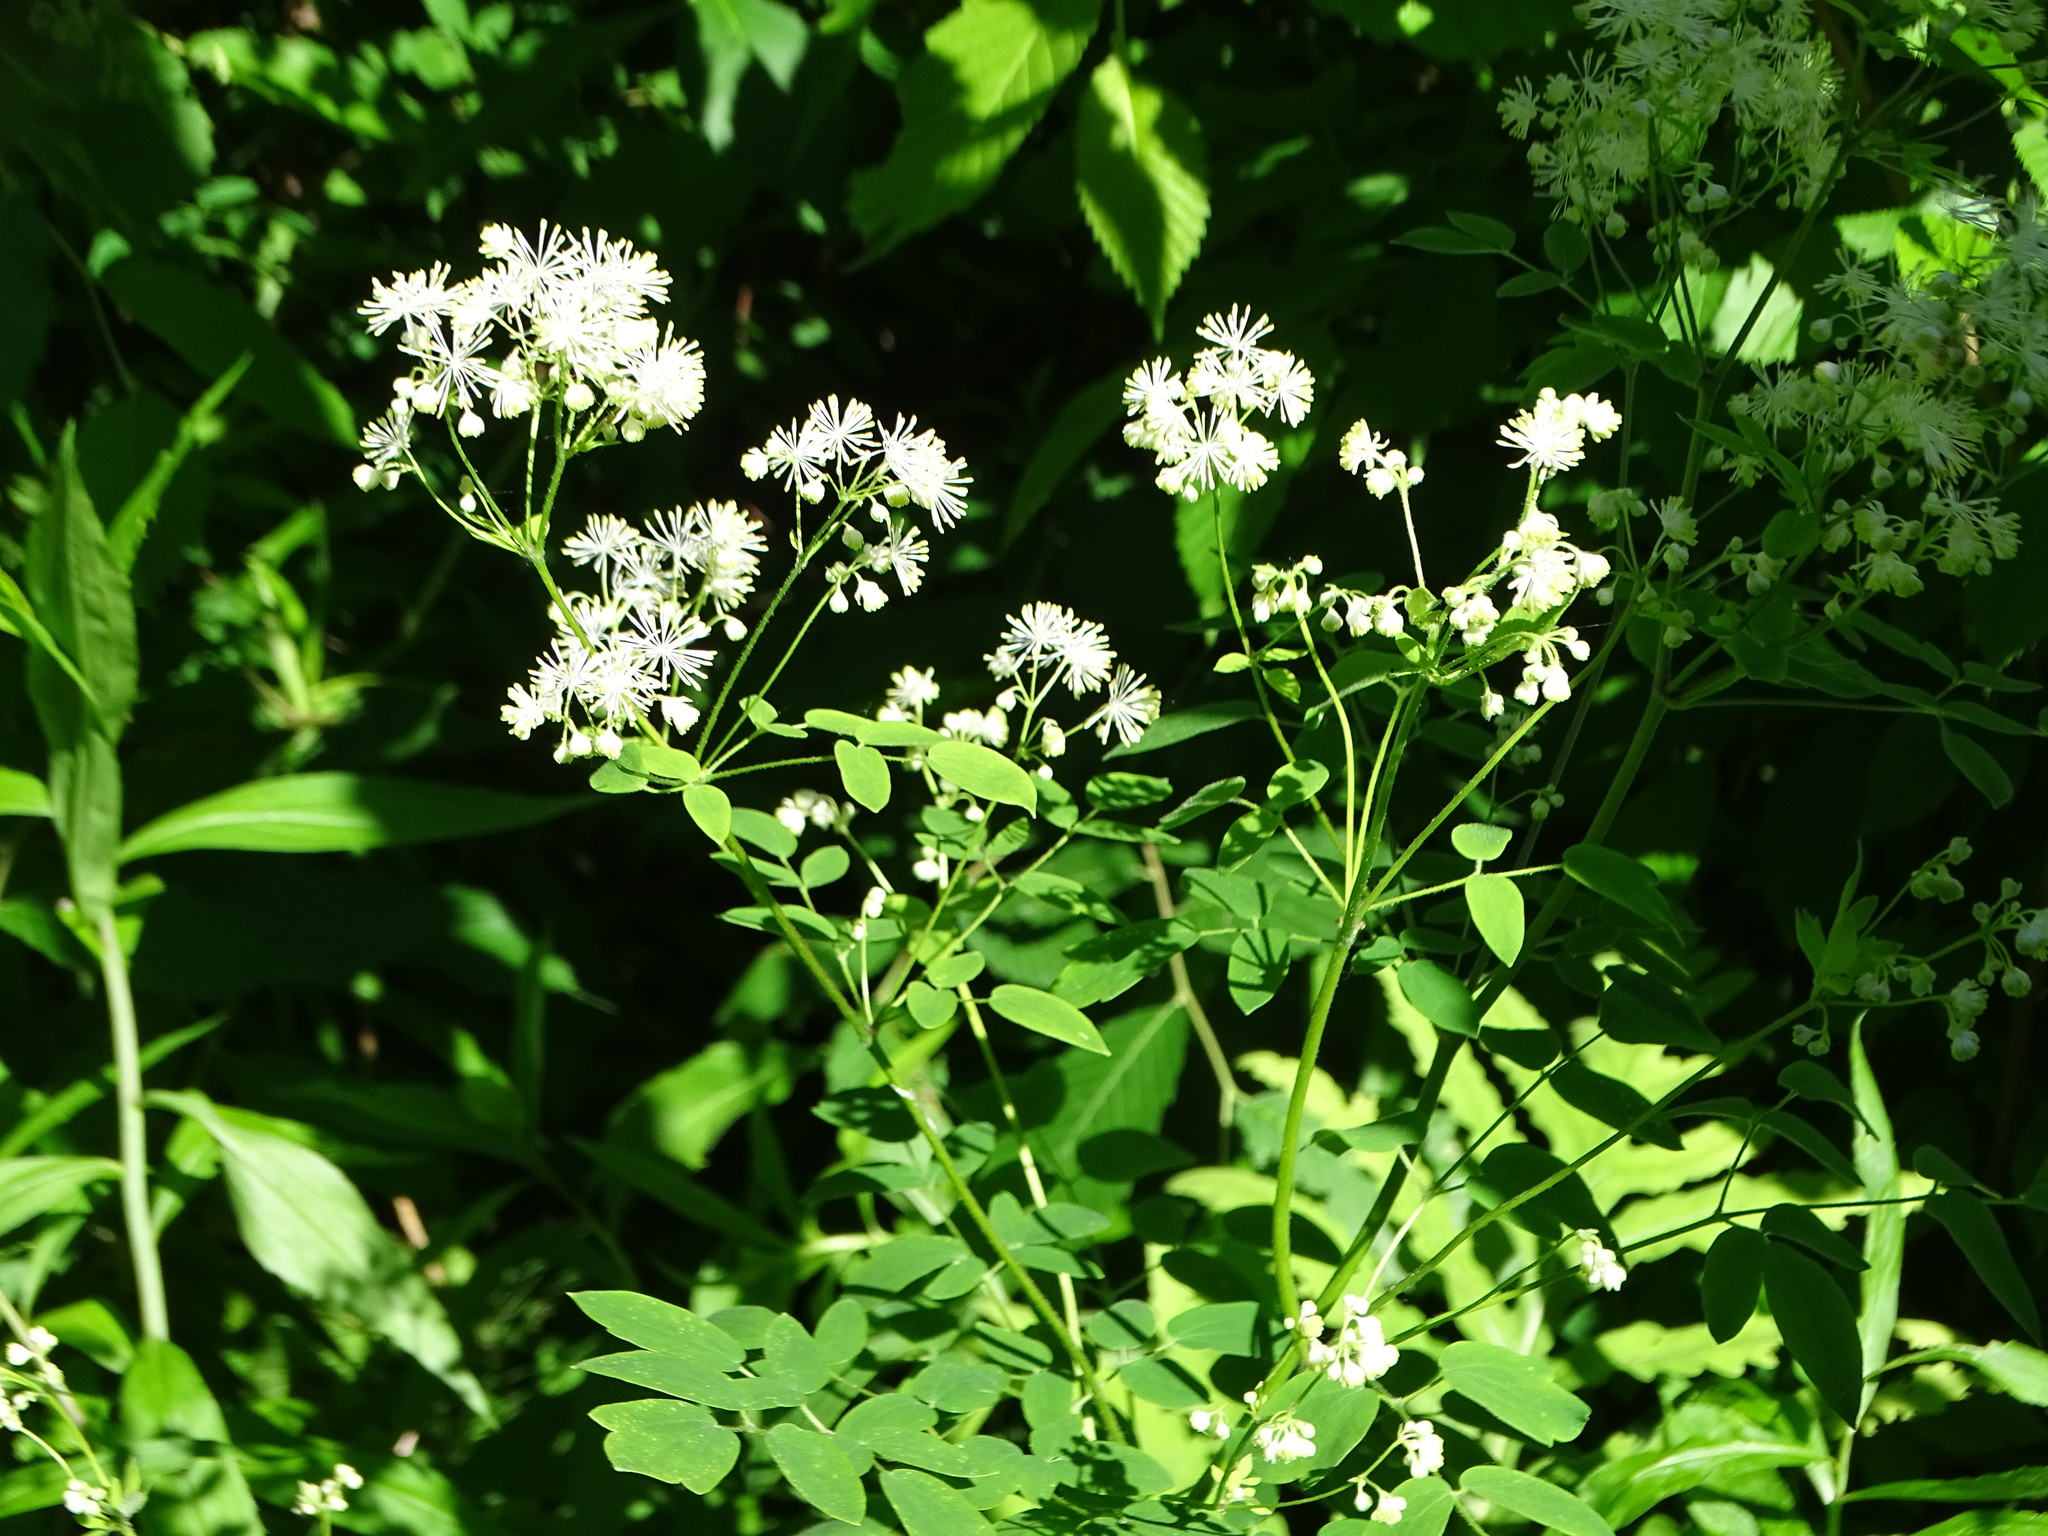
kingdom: Plantae
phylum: Tracheophyta
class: Magnoliopsida
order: Ranunculales
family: Ranunculaceae
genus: Thalictrum
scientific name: Thalictrum pubescens
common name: King-of-the-meadow
